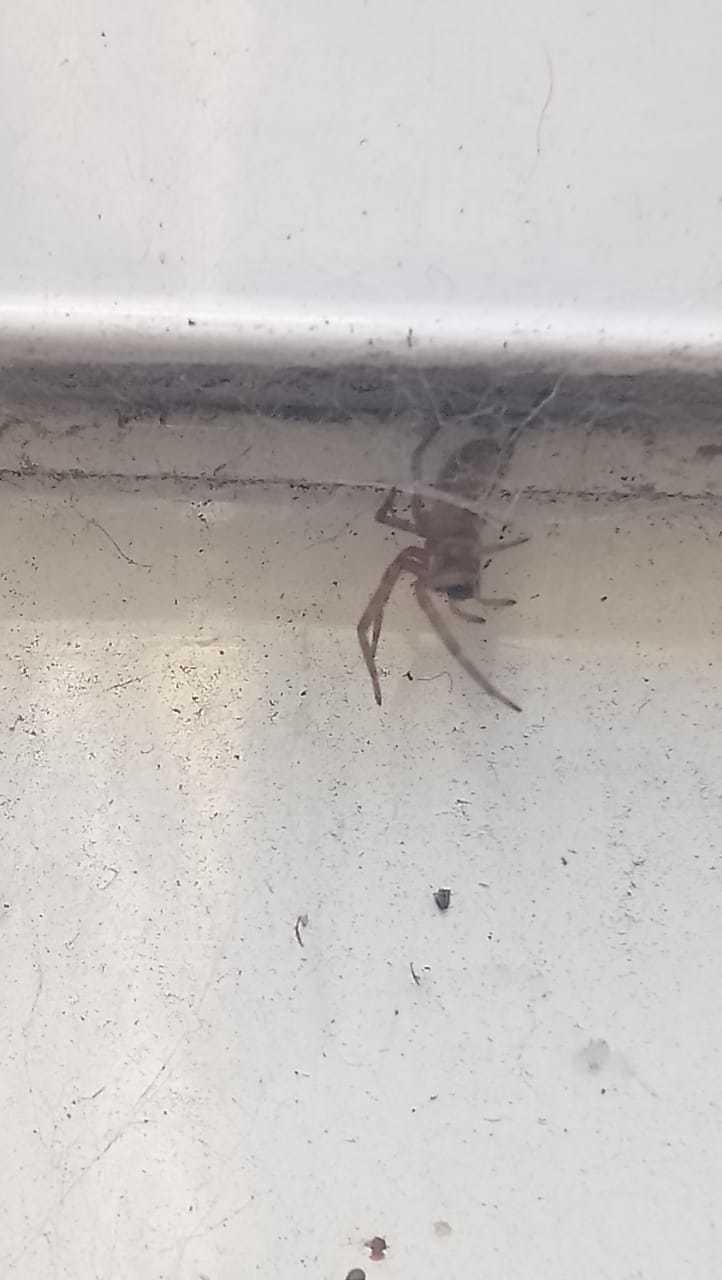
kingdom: Animalia
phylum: Arthropoda
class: Arachnida
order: Araneae
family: Desidae
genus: Badumna
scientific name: Badumna longinqua
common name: Gray house spider
